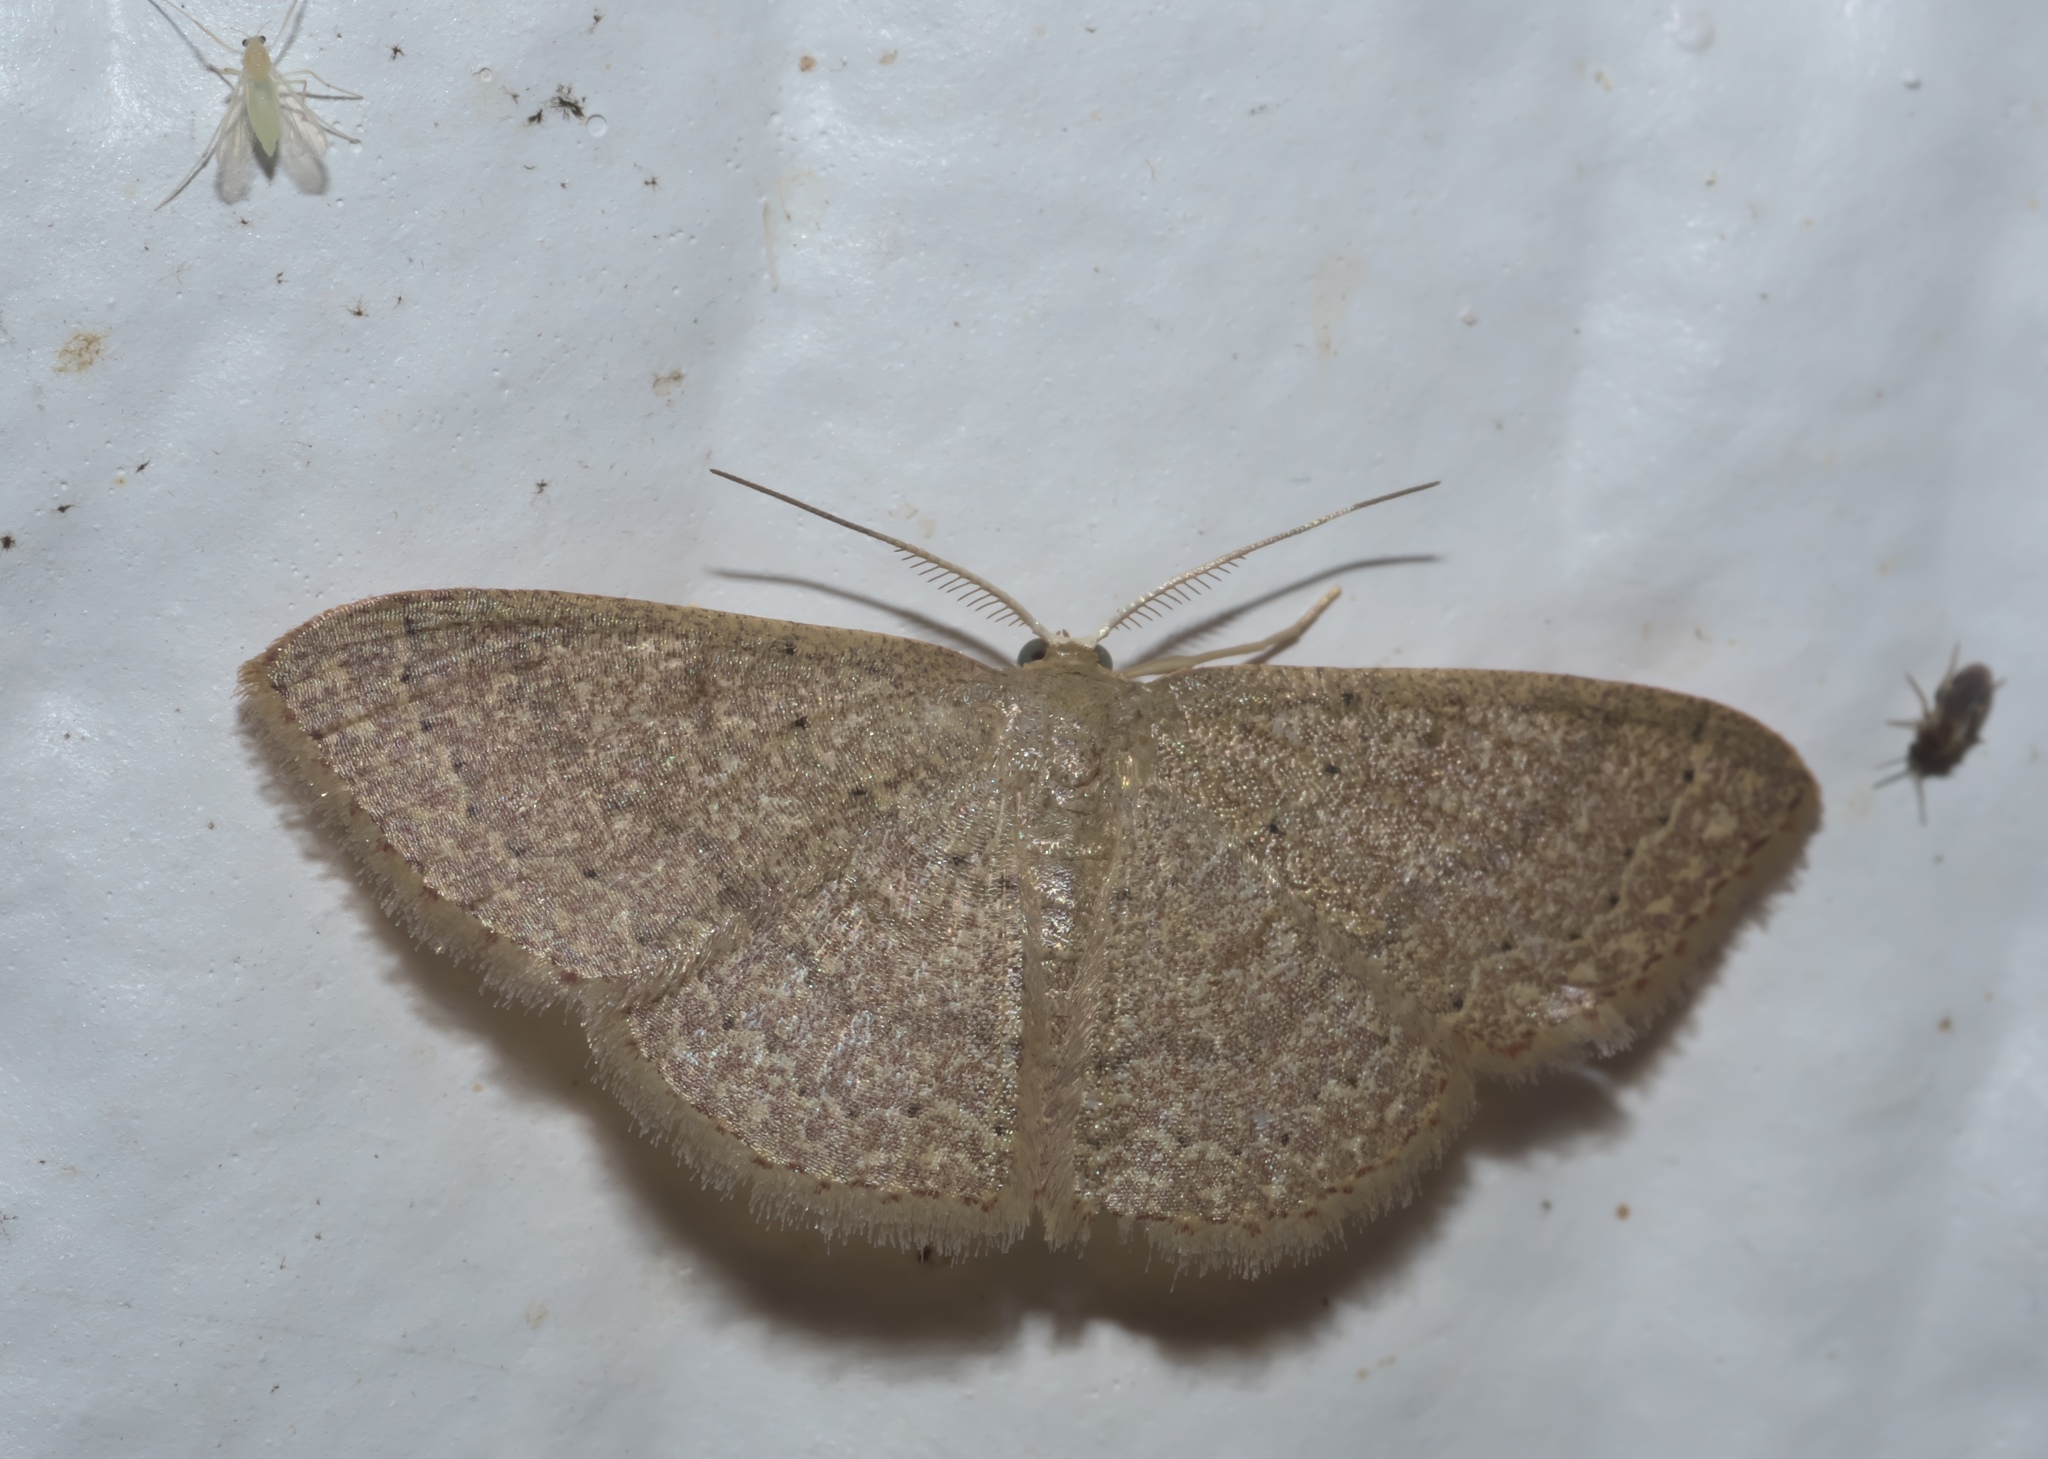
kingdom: Animalia
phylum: Arthropoda
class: Insecta
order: Lepidoptera
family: Geometridae
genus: Pleuroprucha
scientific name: Pleuroprucha insulsaria
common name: Common tan wave
